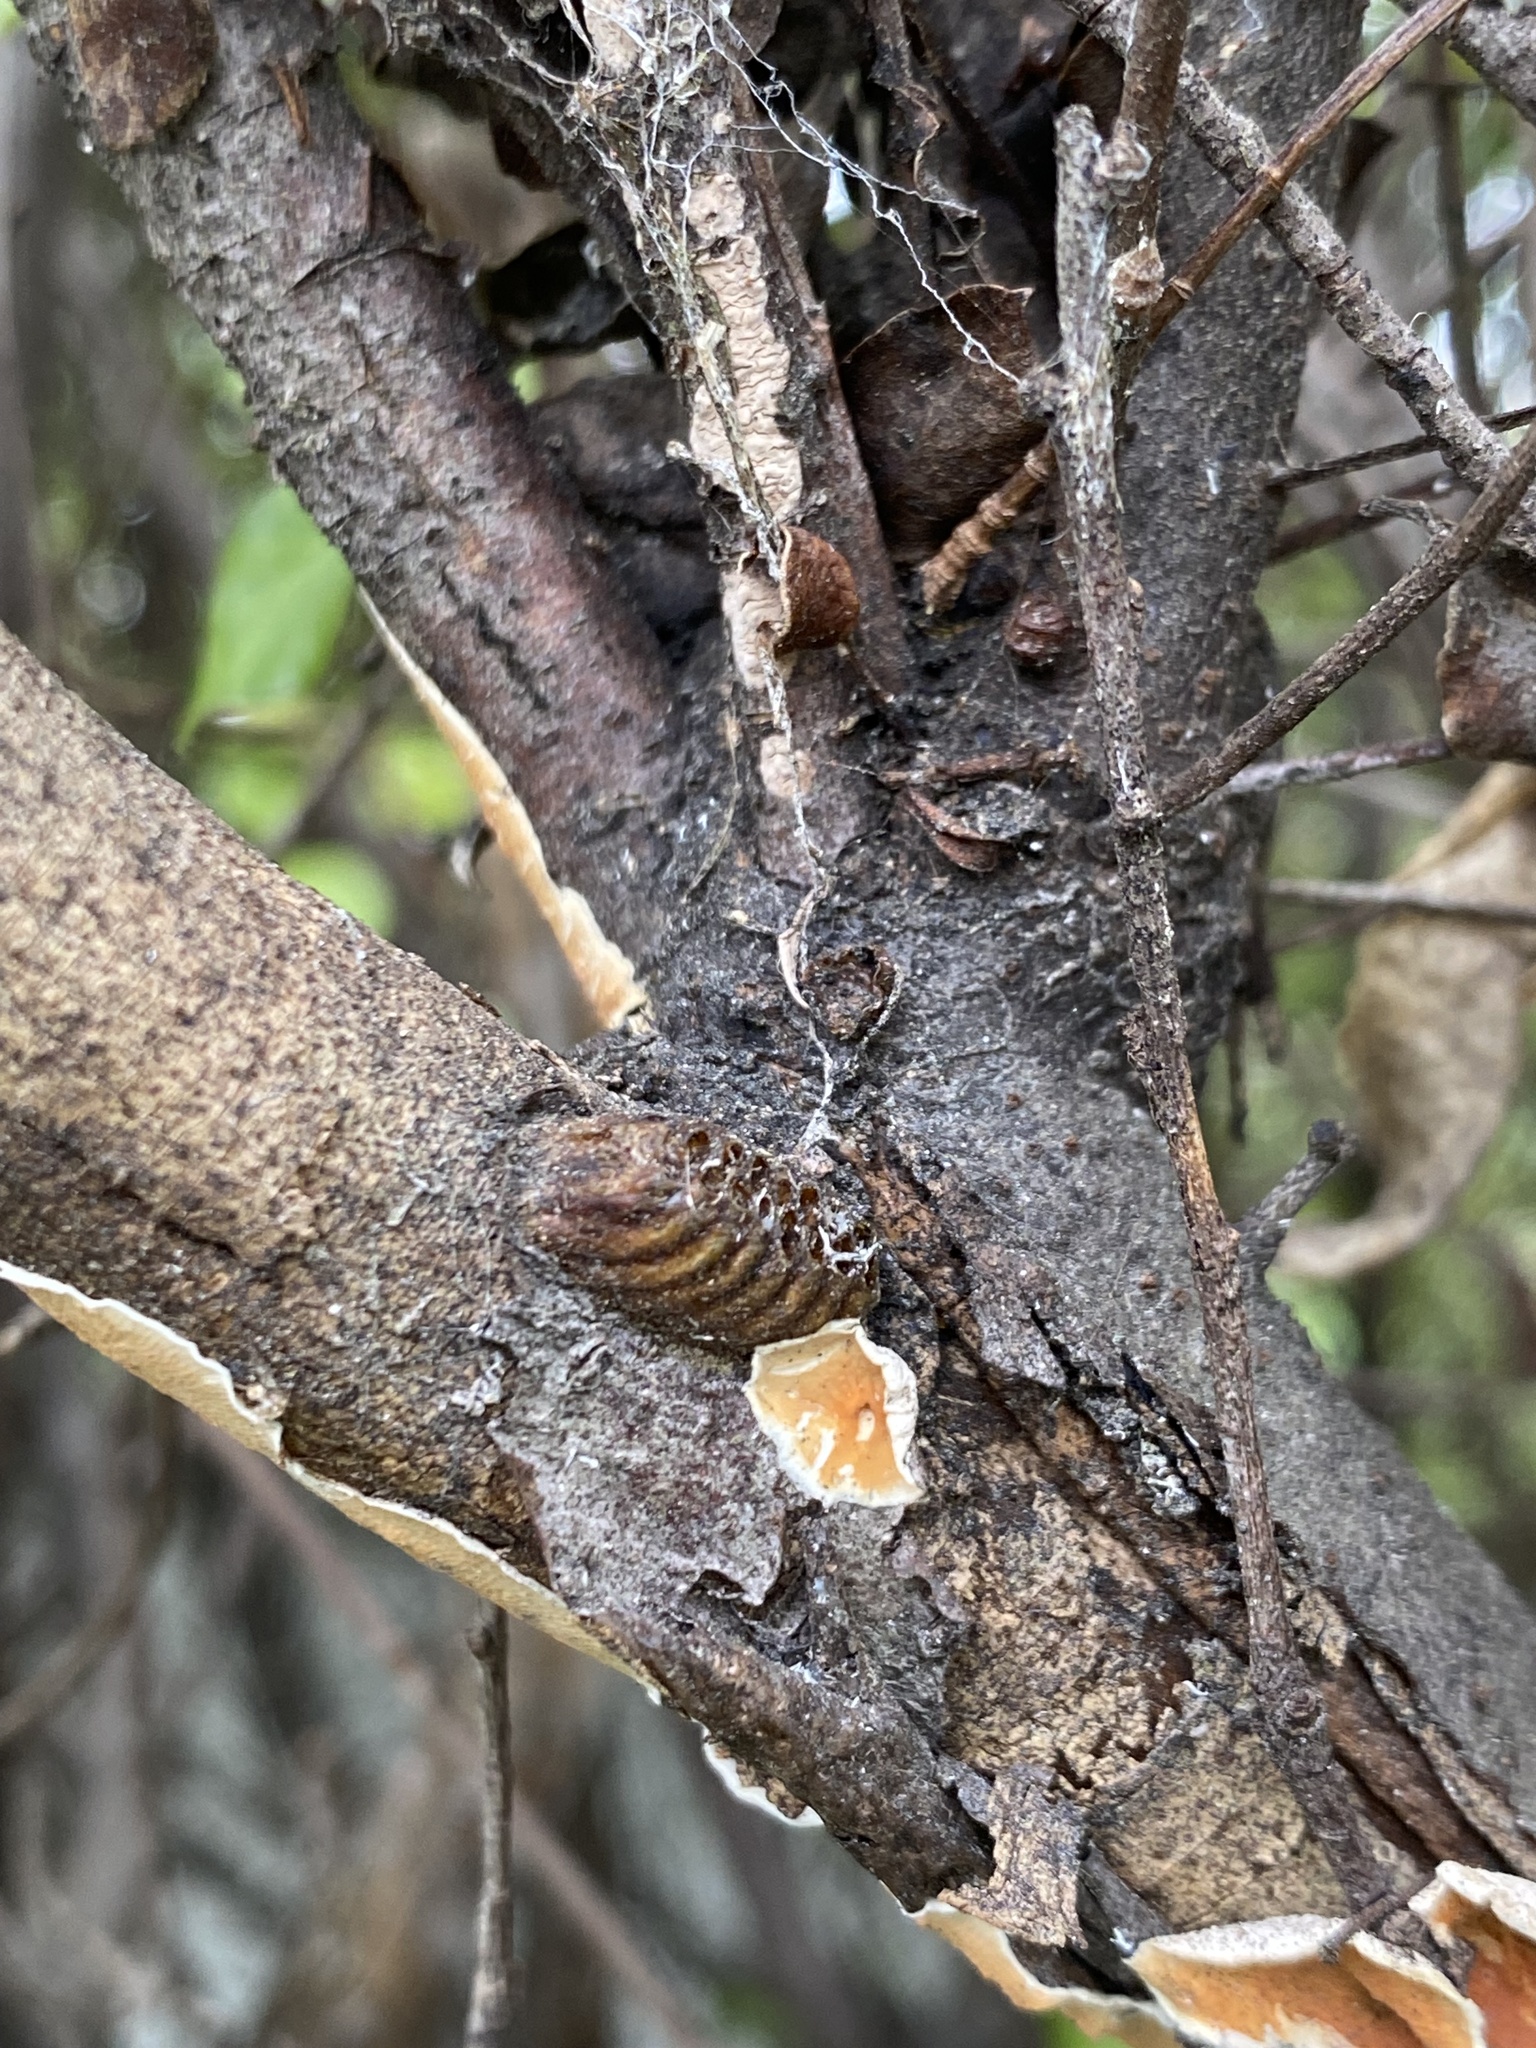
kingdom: Animalia
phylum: Arthropoda
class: Insecta
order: Mantodea
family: Mantidae
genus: Orthodera
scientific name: Orthodera novaezealandiae
